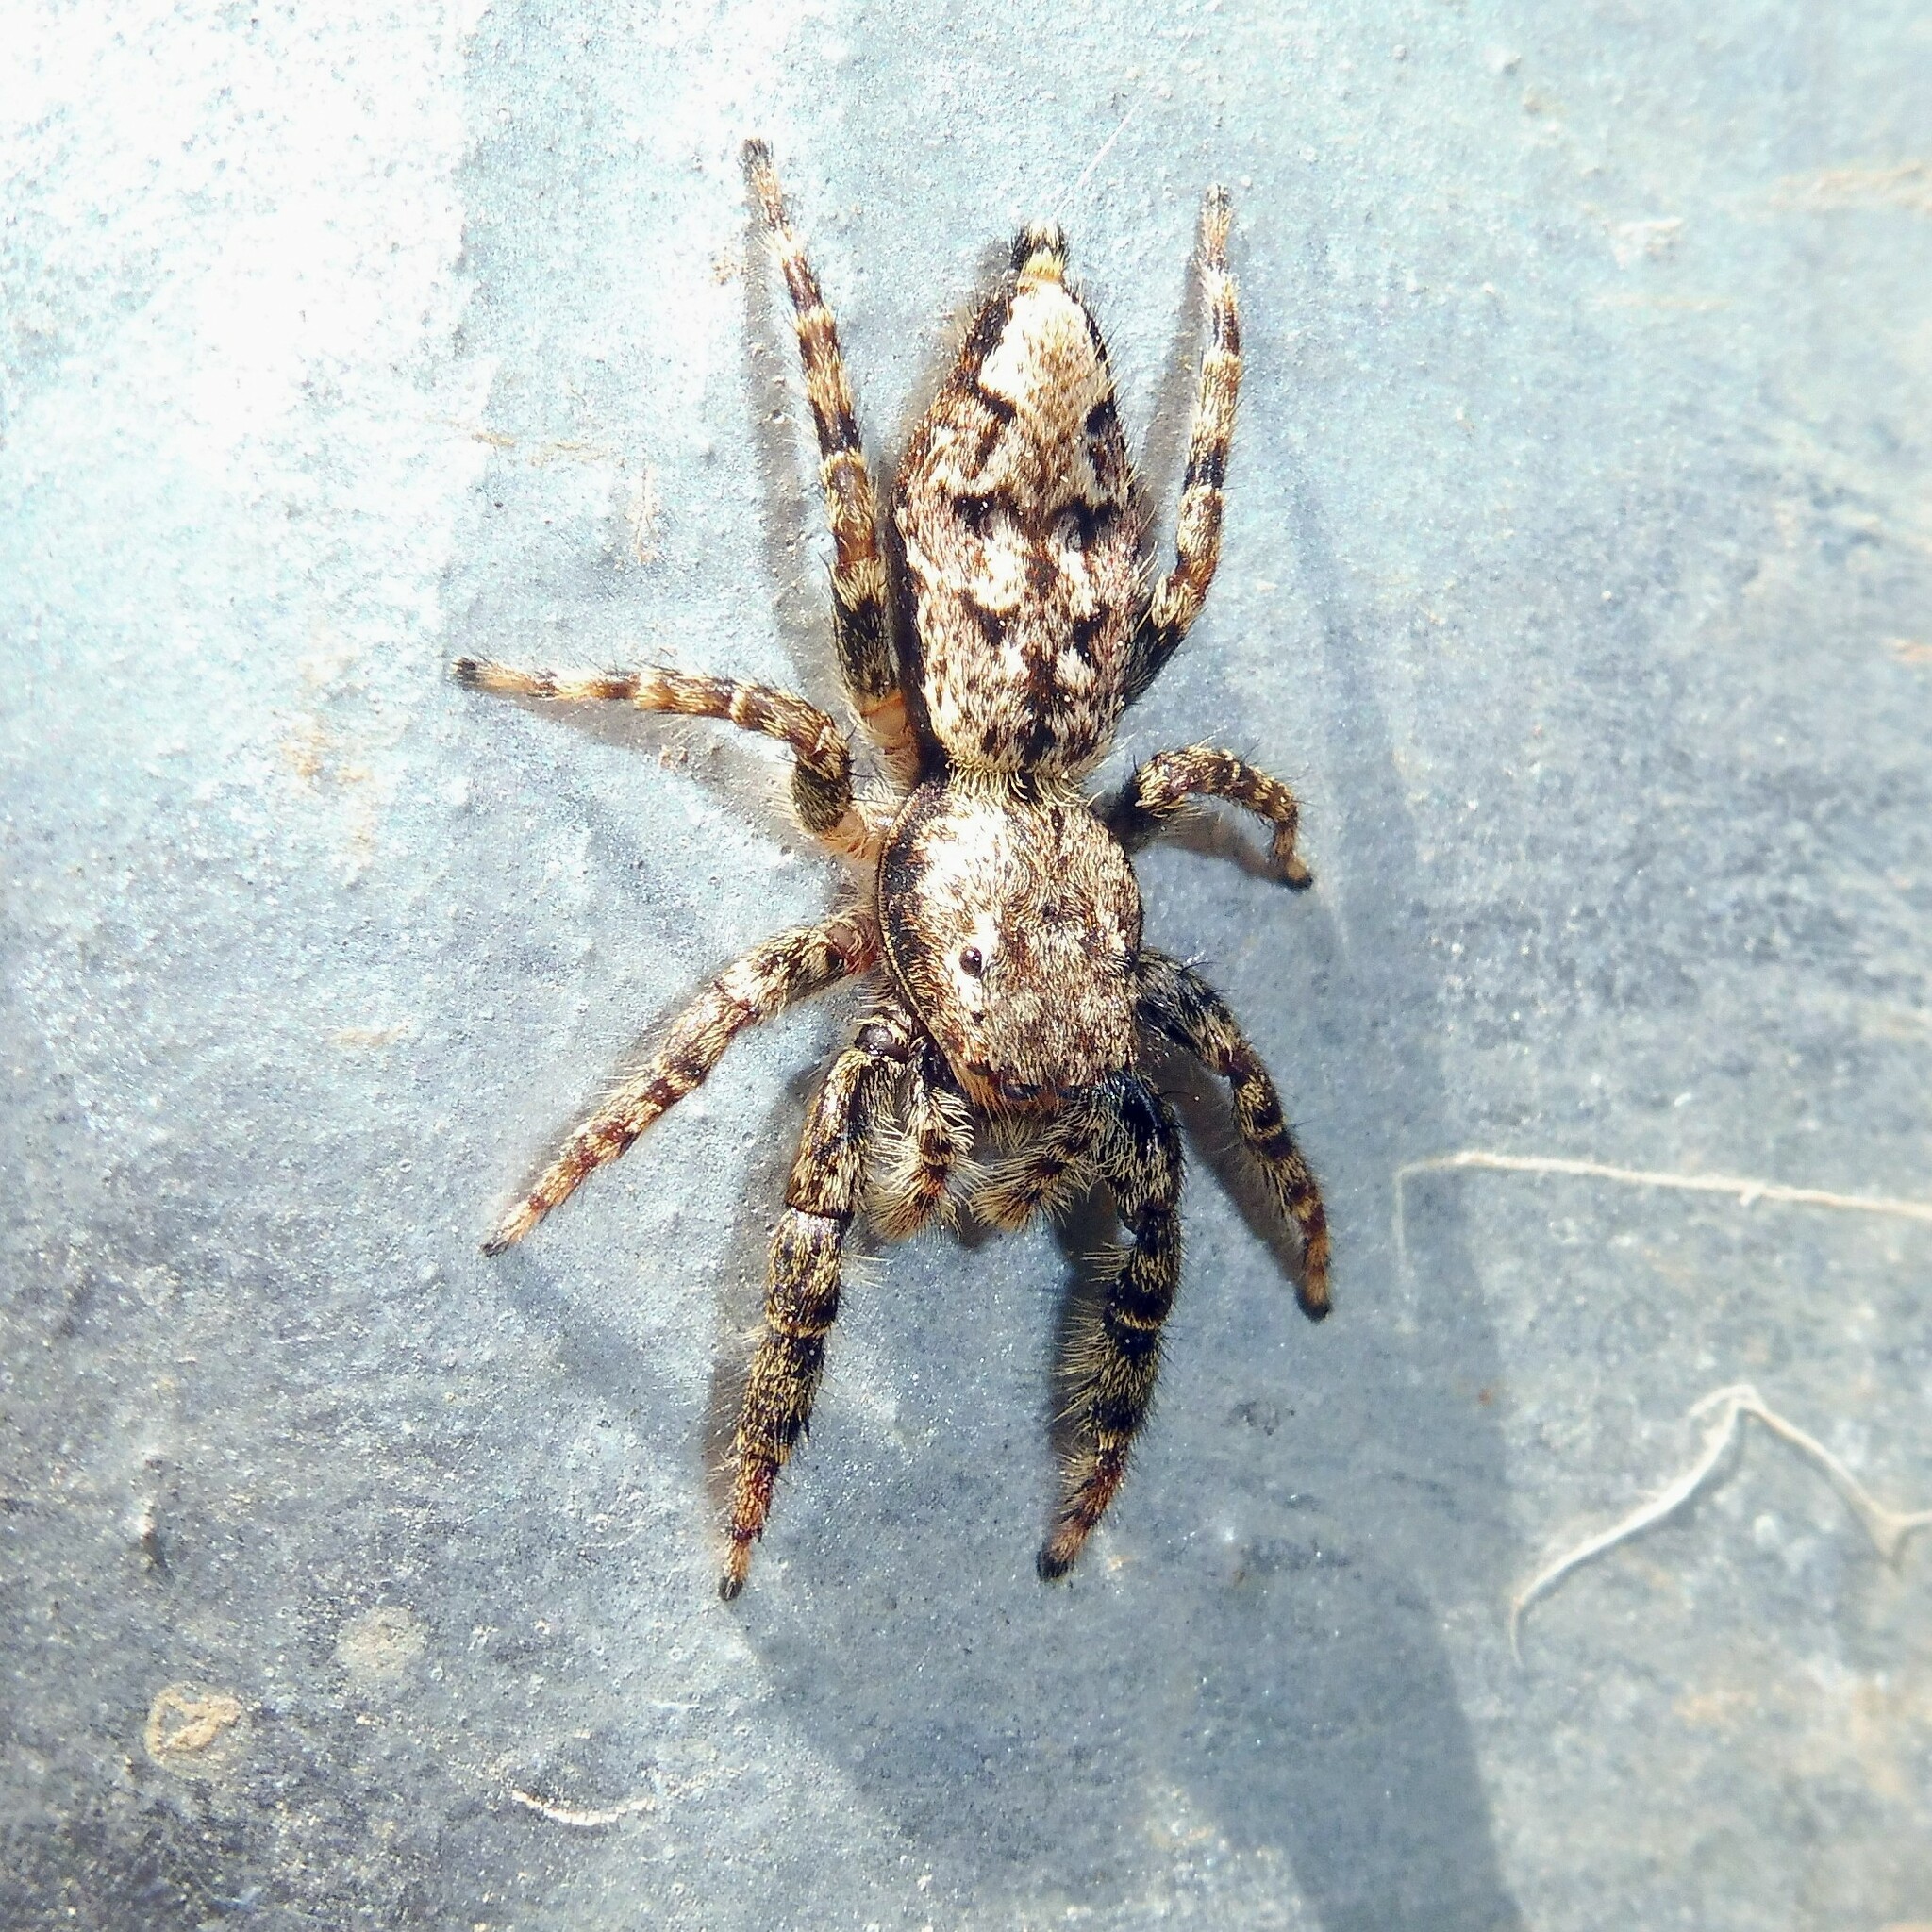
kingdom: Animalia
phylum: Arthropoda
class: Arachnida
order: Araneae
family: Salticidae
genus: Marpissa
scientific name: Marpissa muscosa
